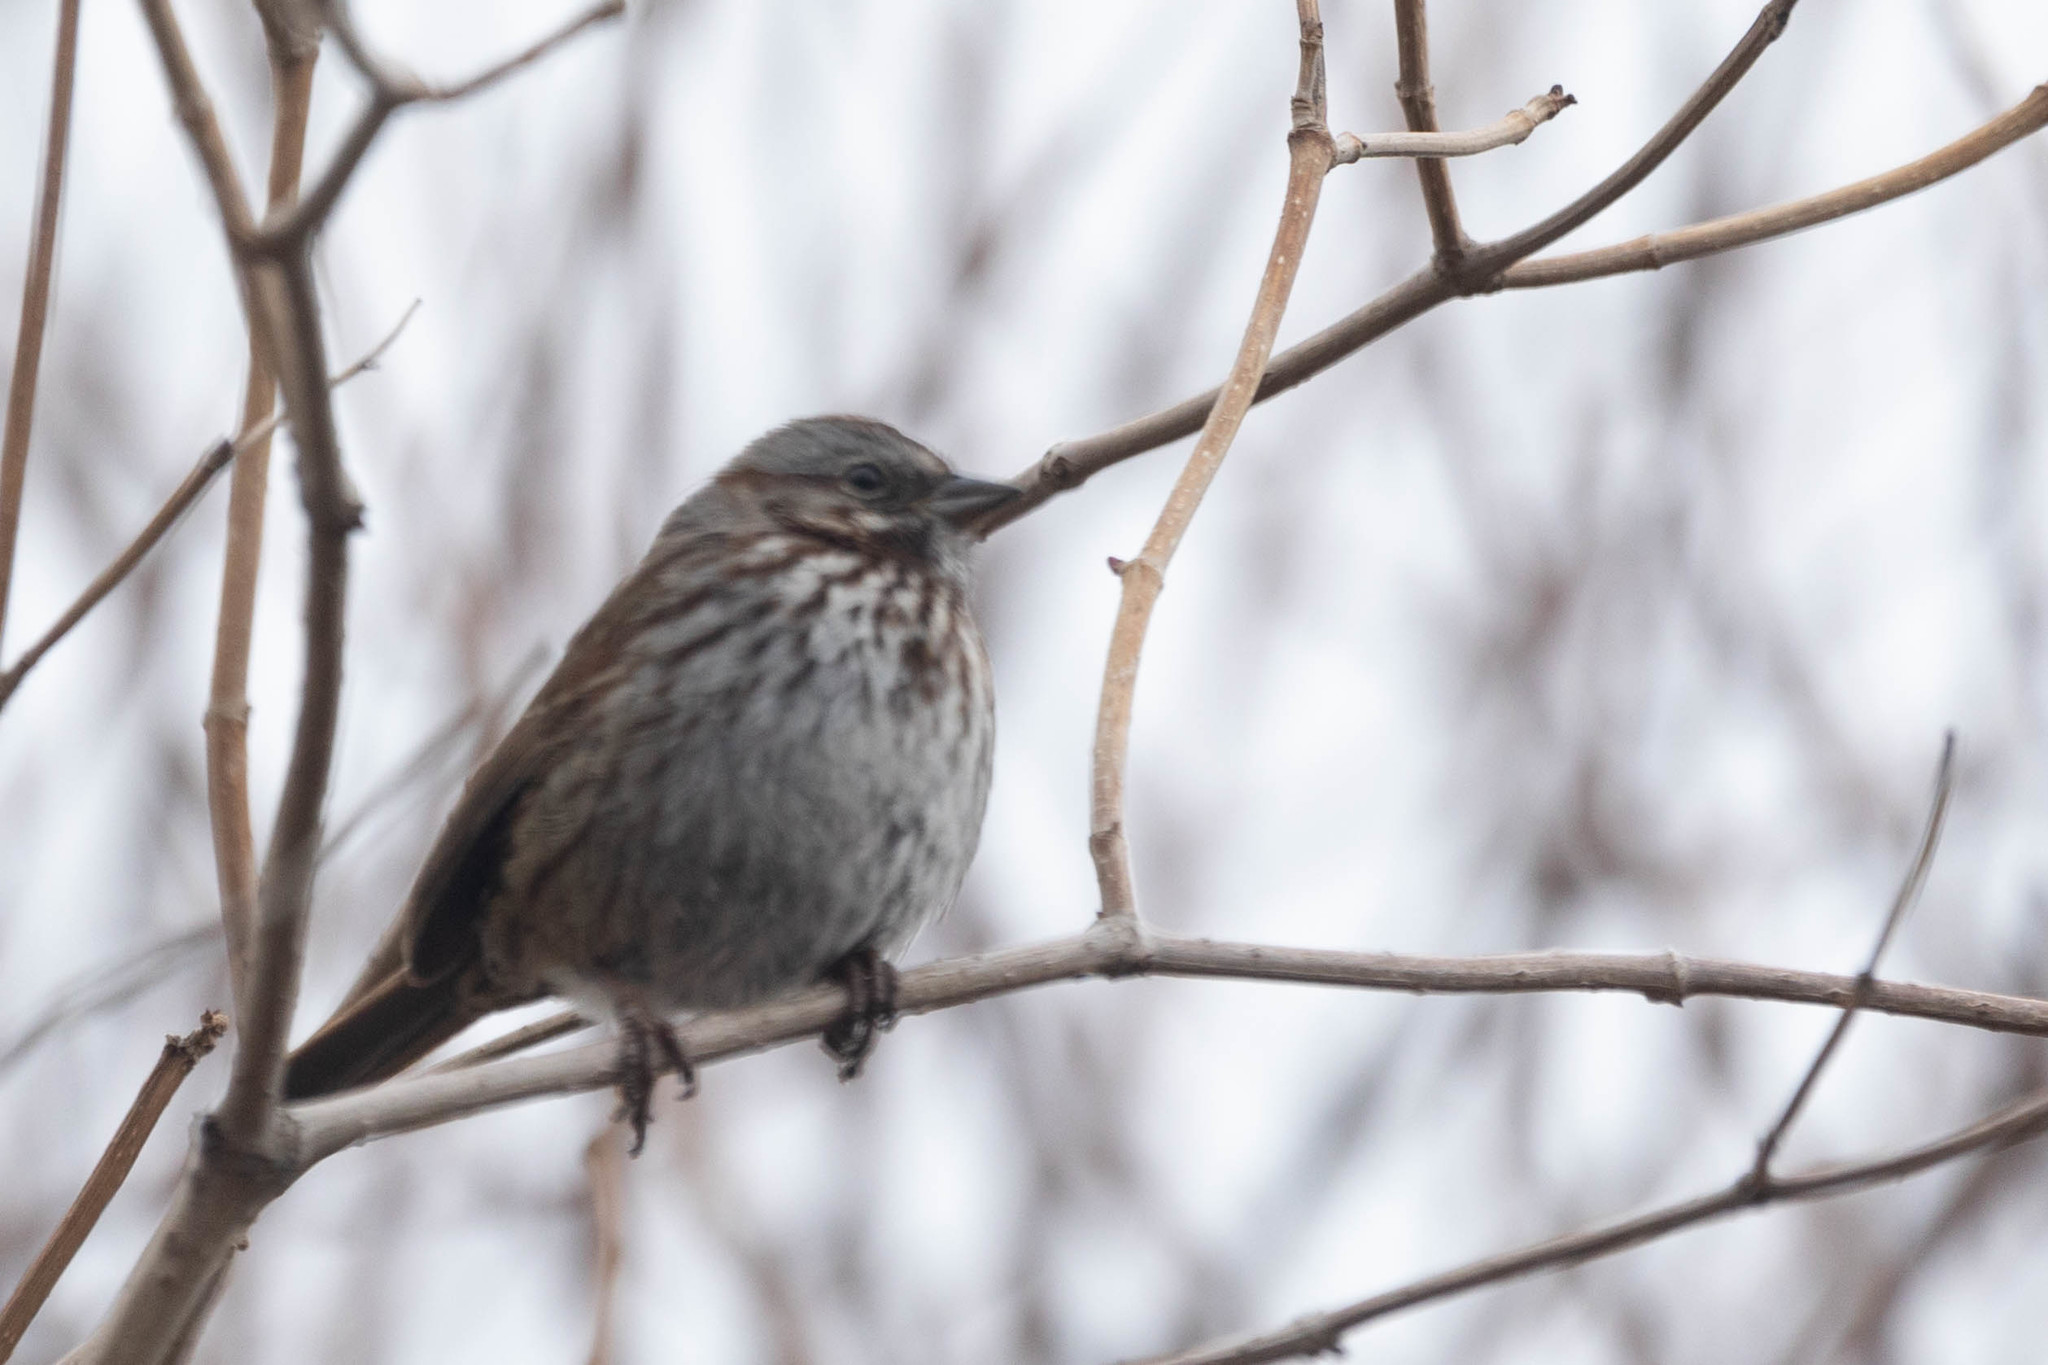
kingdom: Animalia
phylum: Chordata
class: Aves
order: Passeriformes
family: Passerellidae
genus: Melospiza
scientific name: Melospiza melodia
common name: Song sparrow
